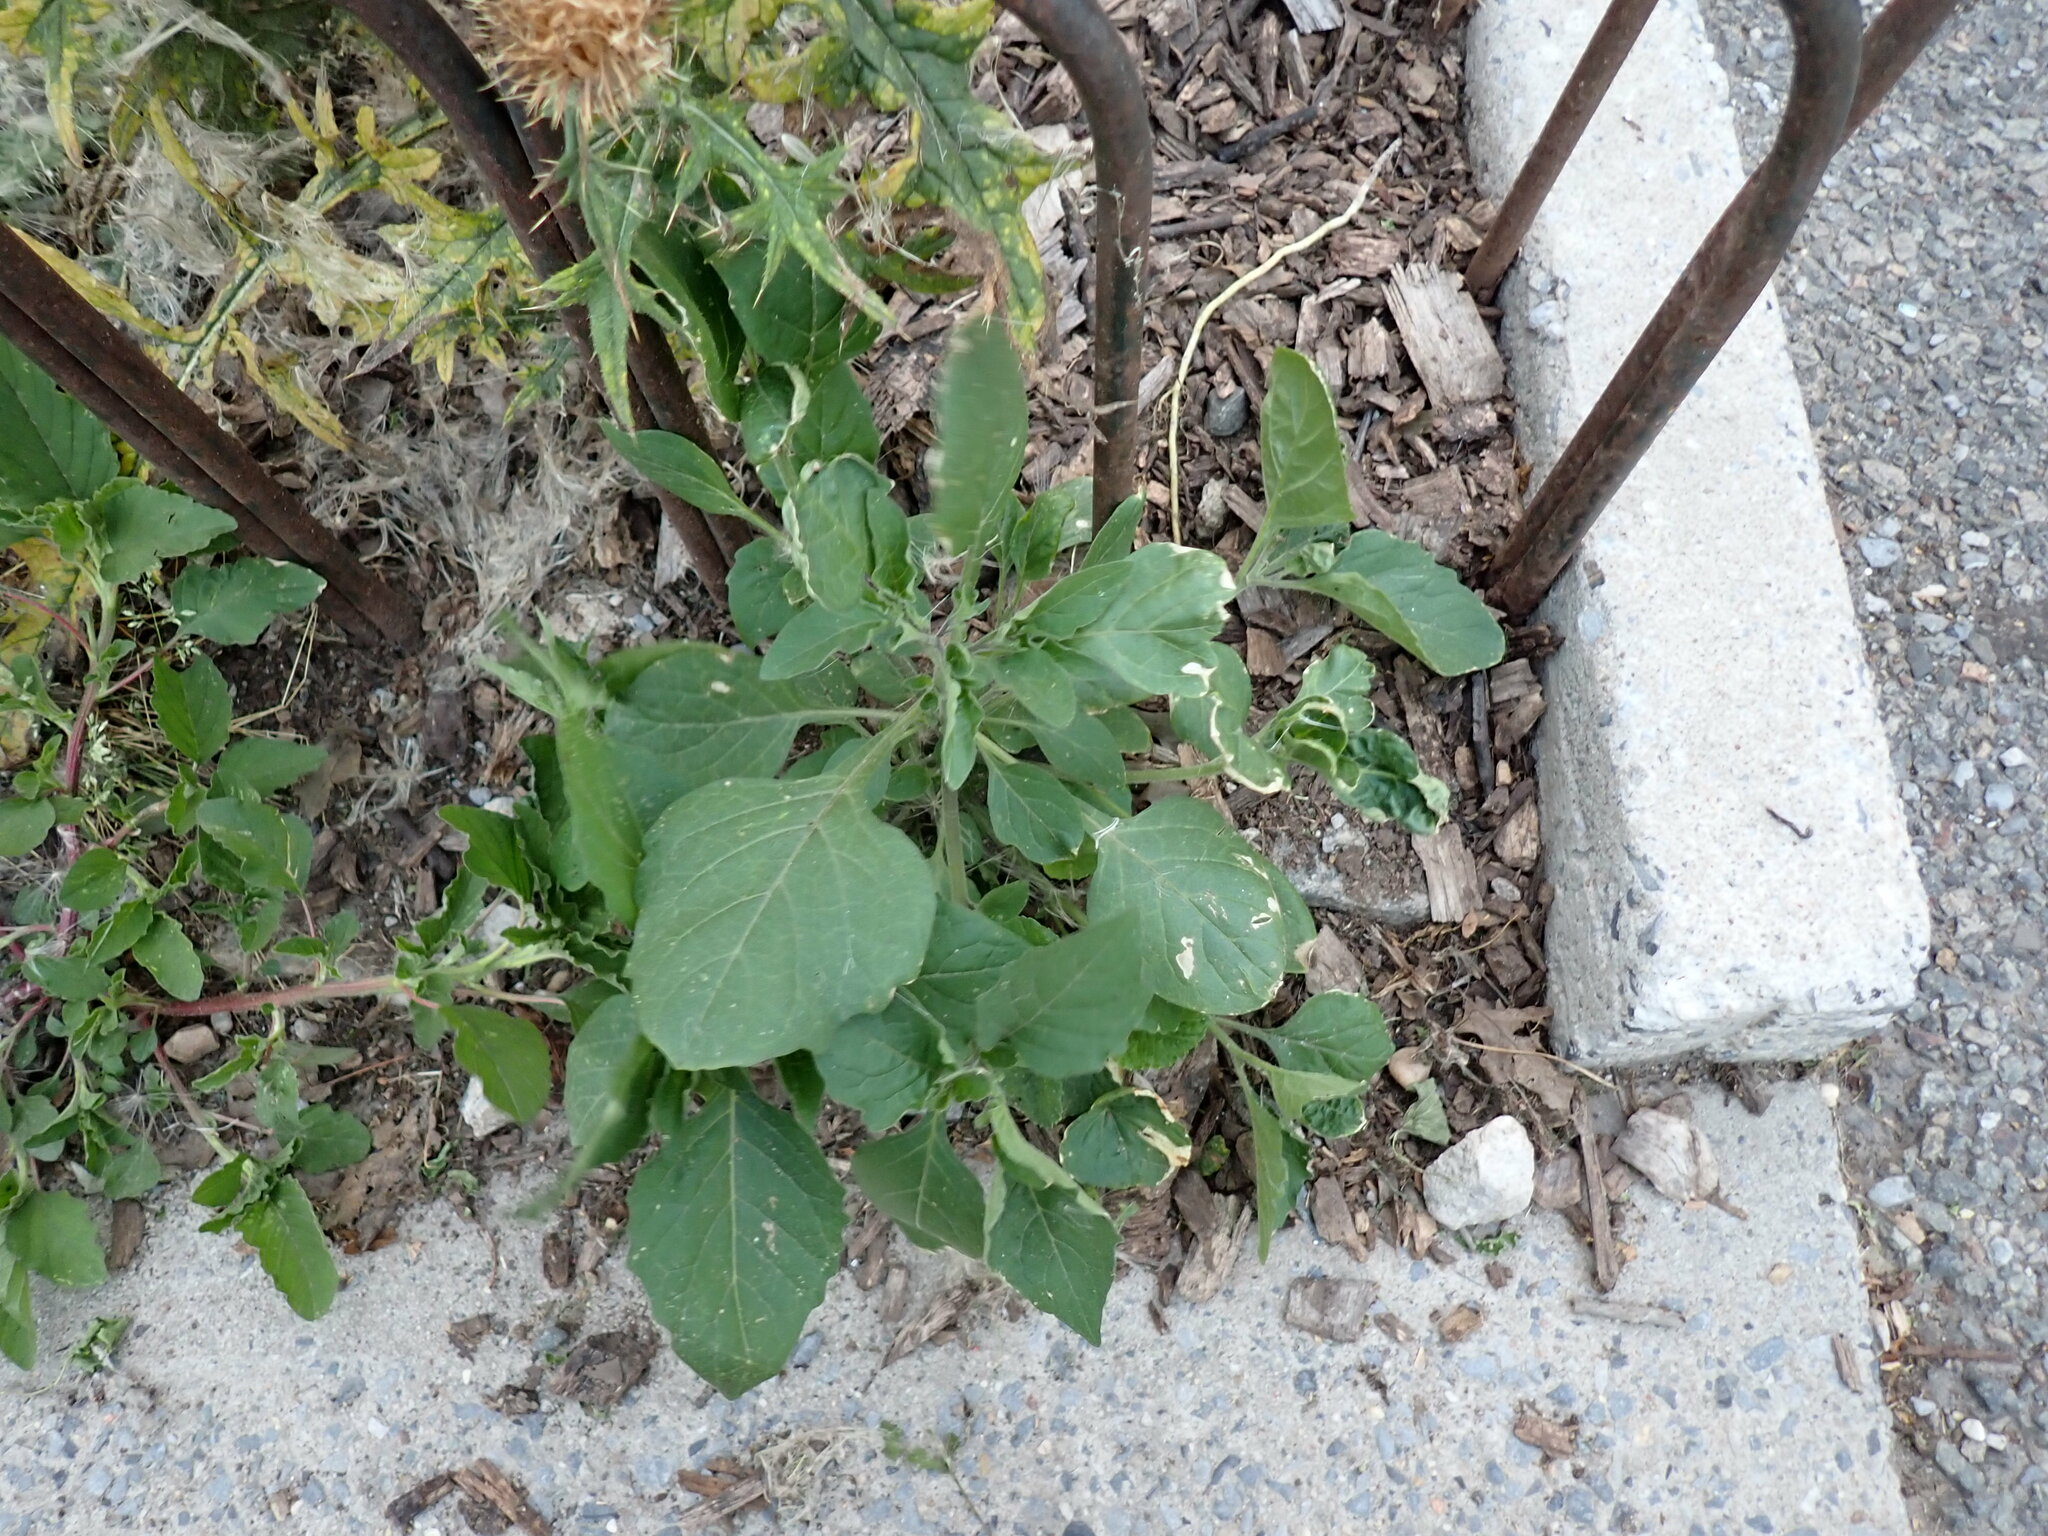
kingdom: Plantae
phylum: Tracheophyta
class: Magnoliopsida
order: Solanales
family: Solanaceae
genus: Solanum
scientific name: Solanum nigrum
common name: Black nightshade
